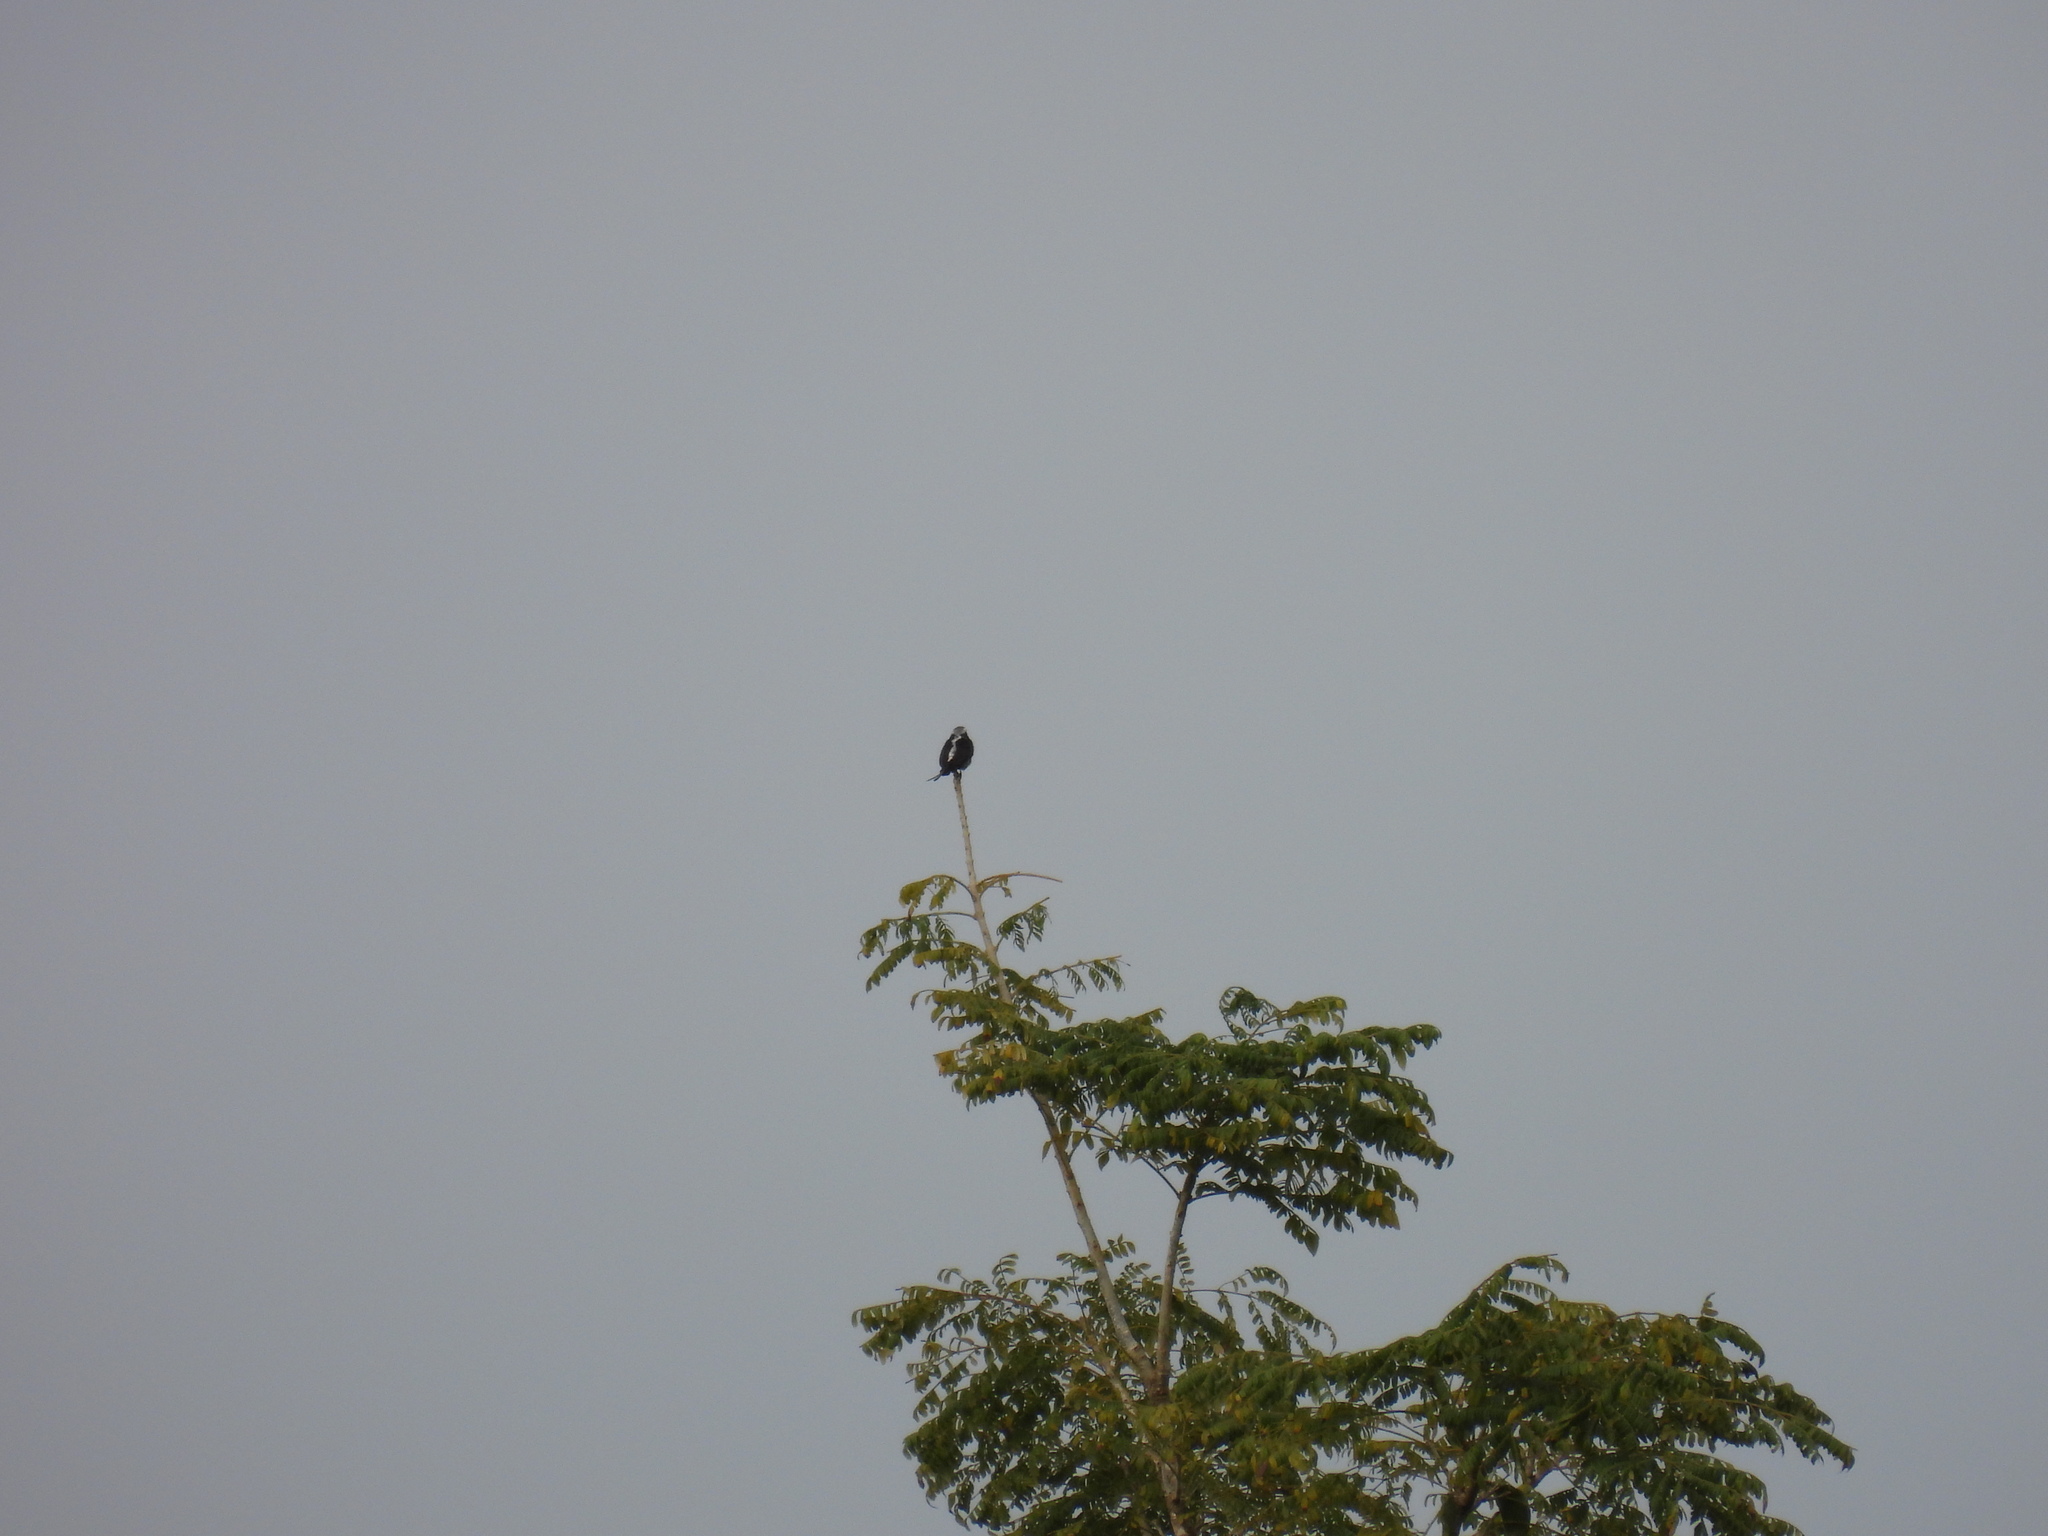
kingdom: Animalia
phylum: Chordata
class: Aves
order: Passeriformes
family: Tyrannidae
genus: Colonia
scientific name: Colonia colonus
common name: Long-tailed tyrant
